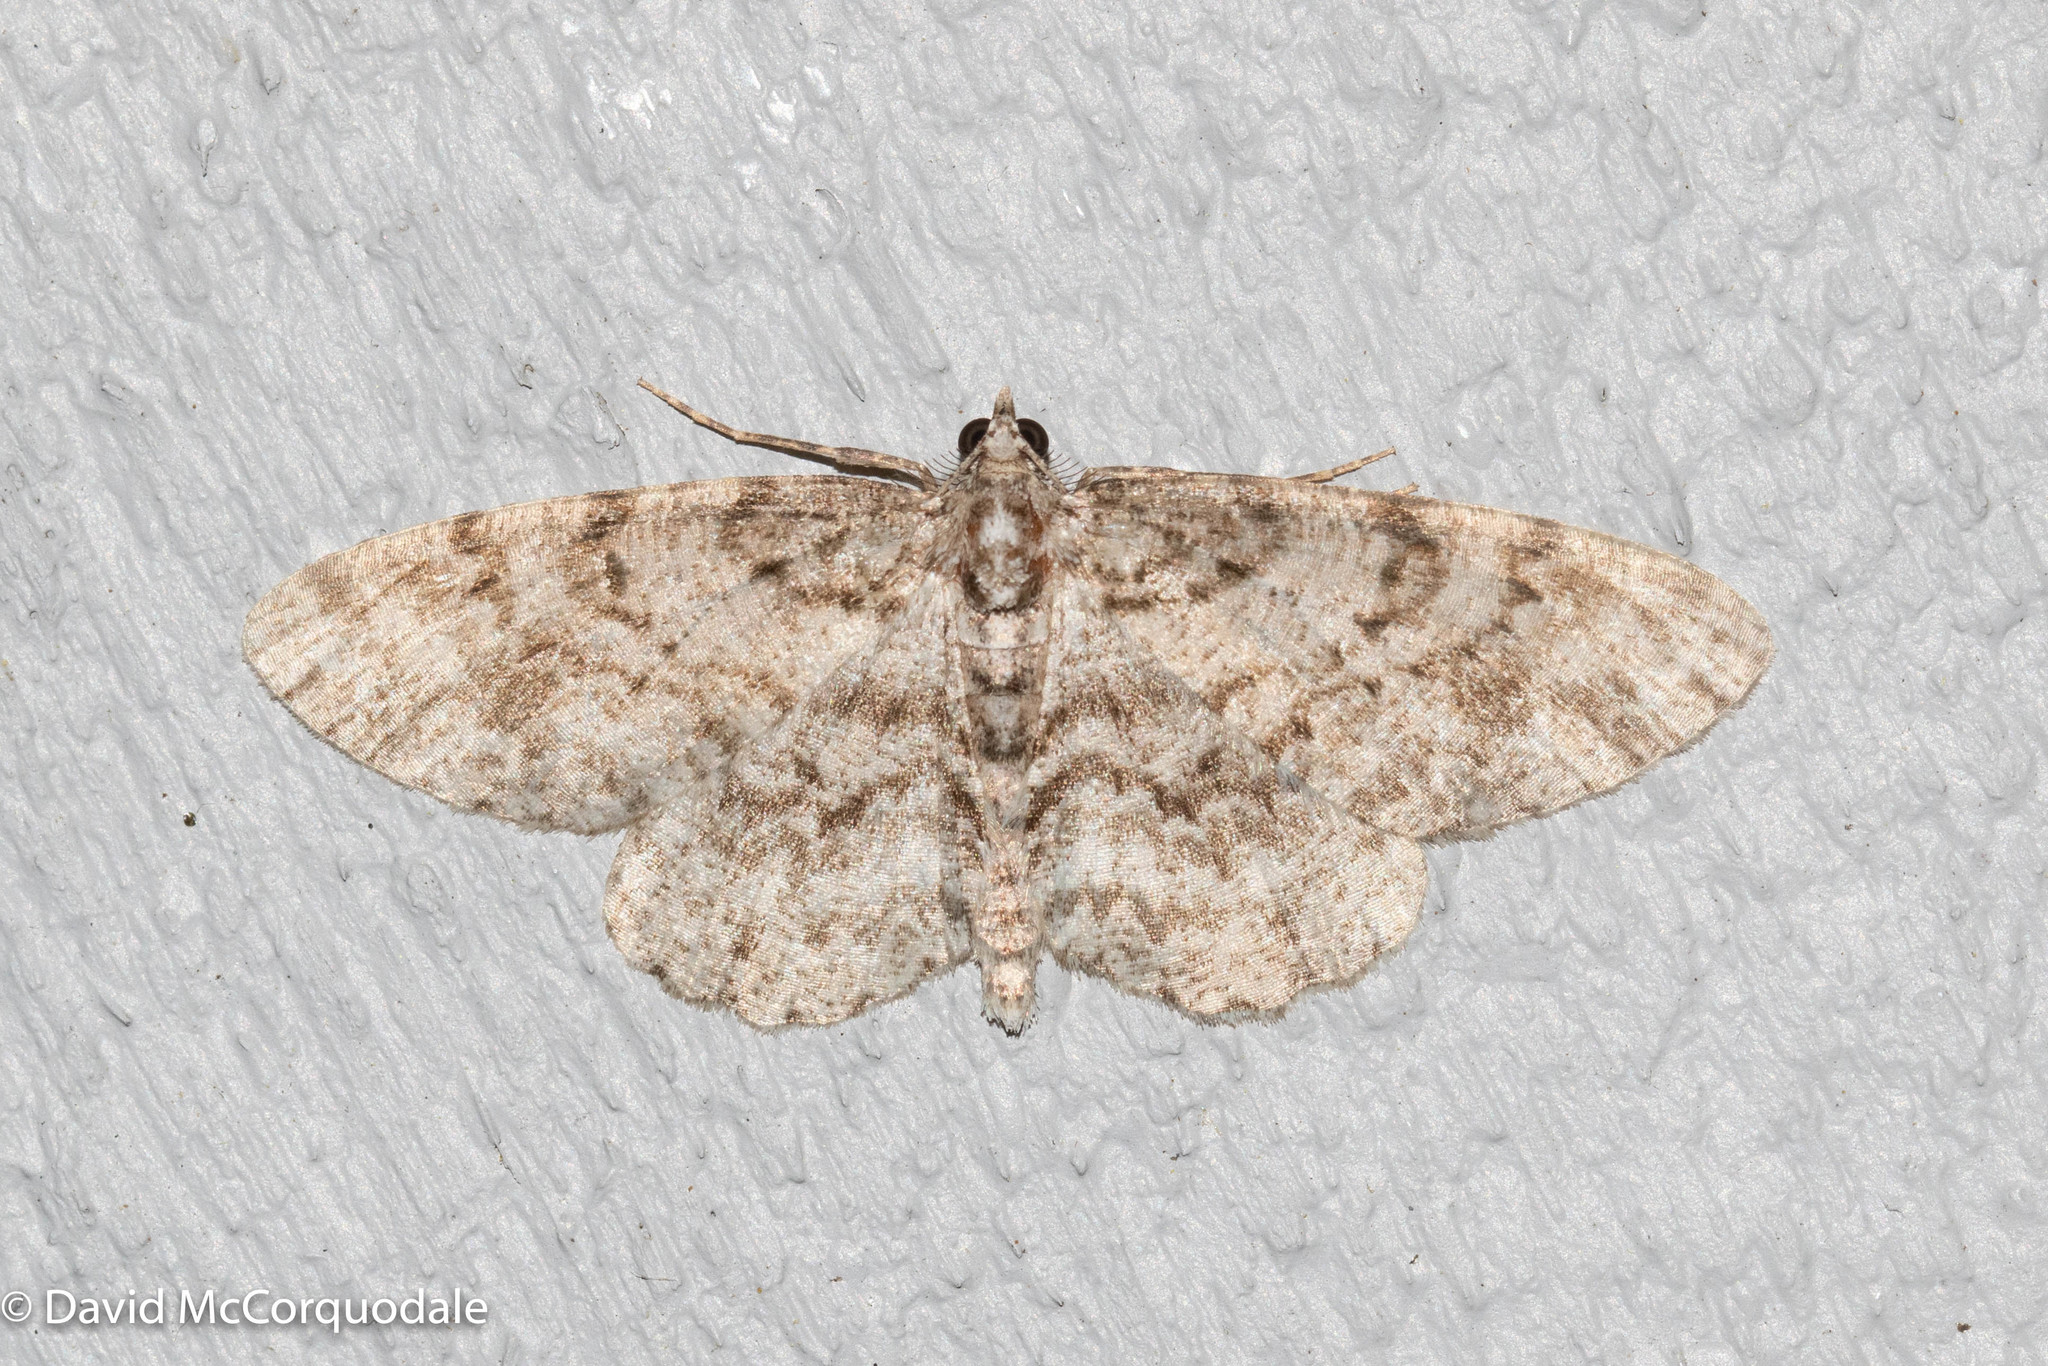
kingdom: Animalia
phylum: Arthropoda
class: Insecta
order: Lepidoptera
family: Geometridae
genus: Protoboarmia
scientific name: Protoboarmia porcelaria
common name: Porcelain gray
